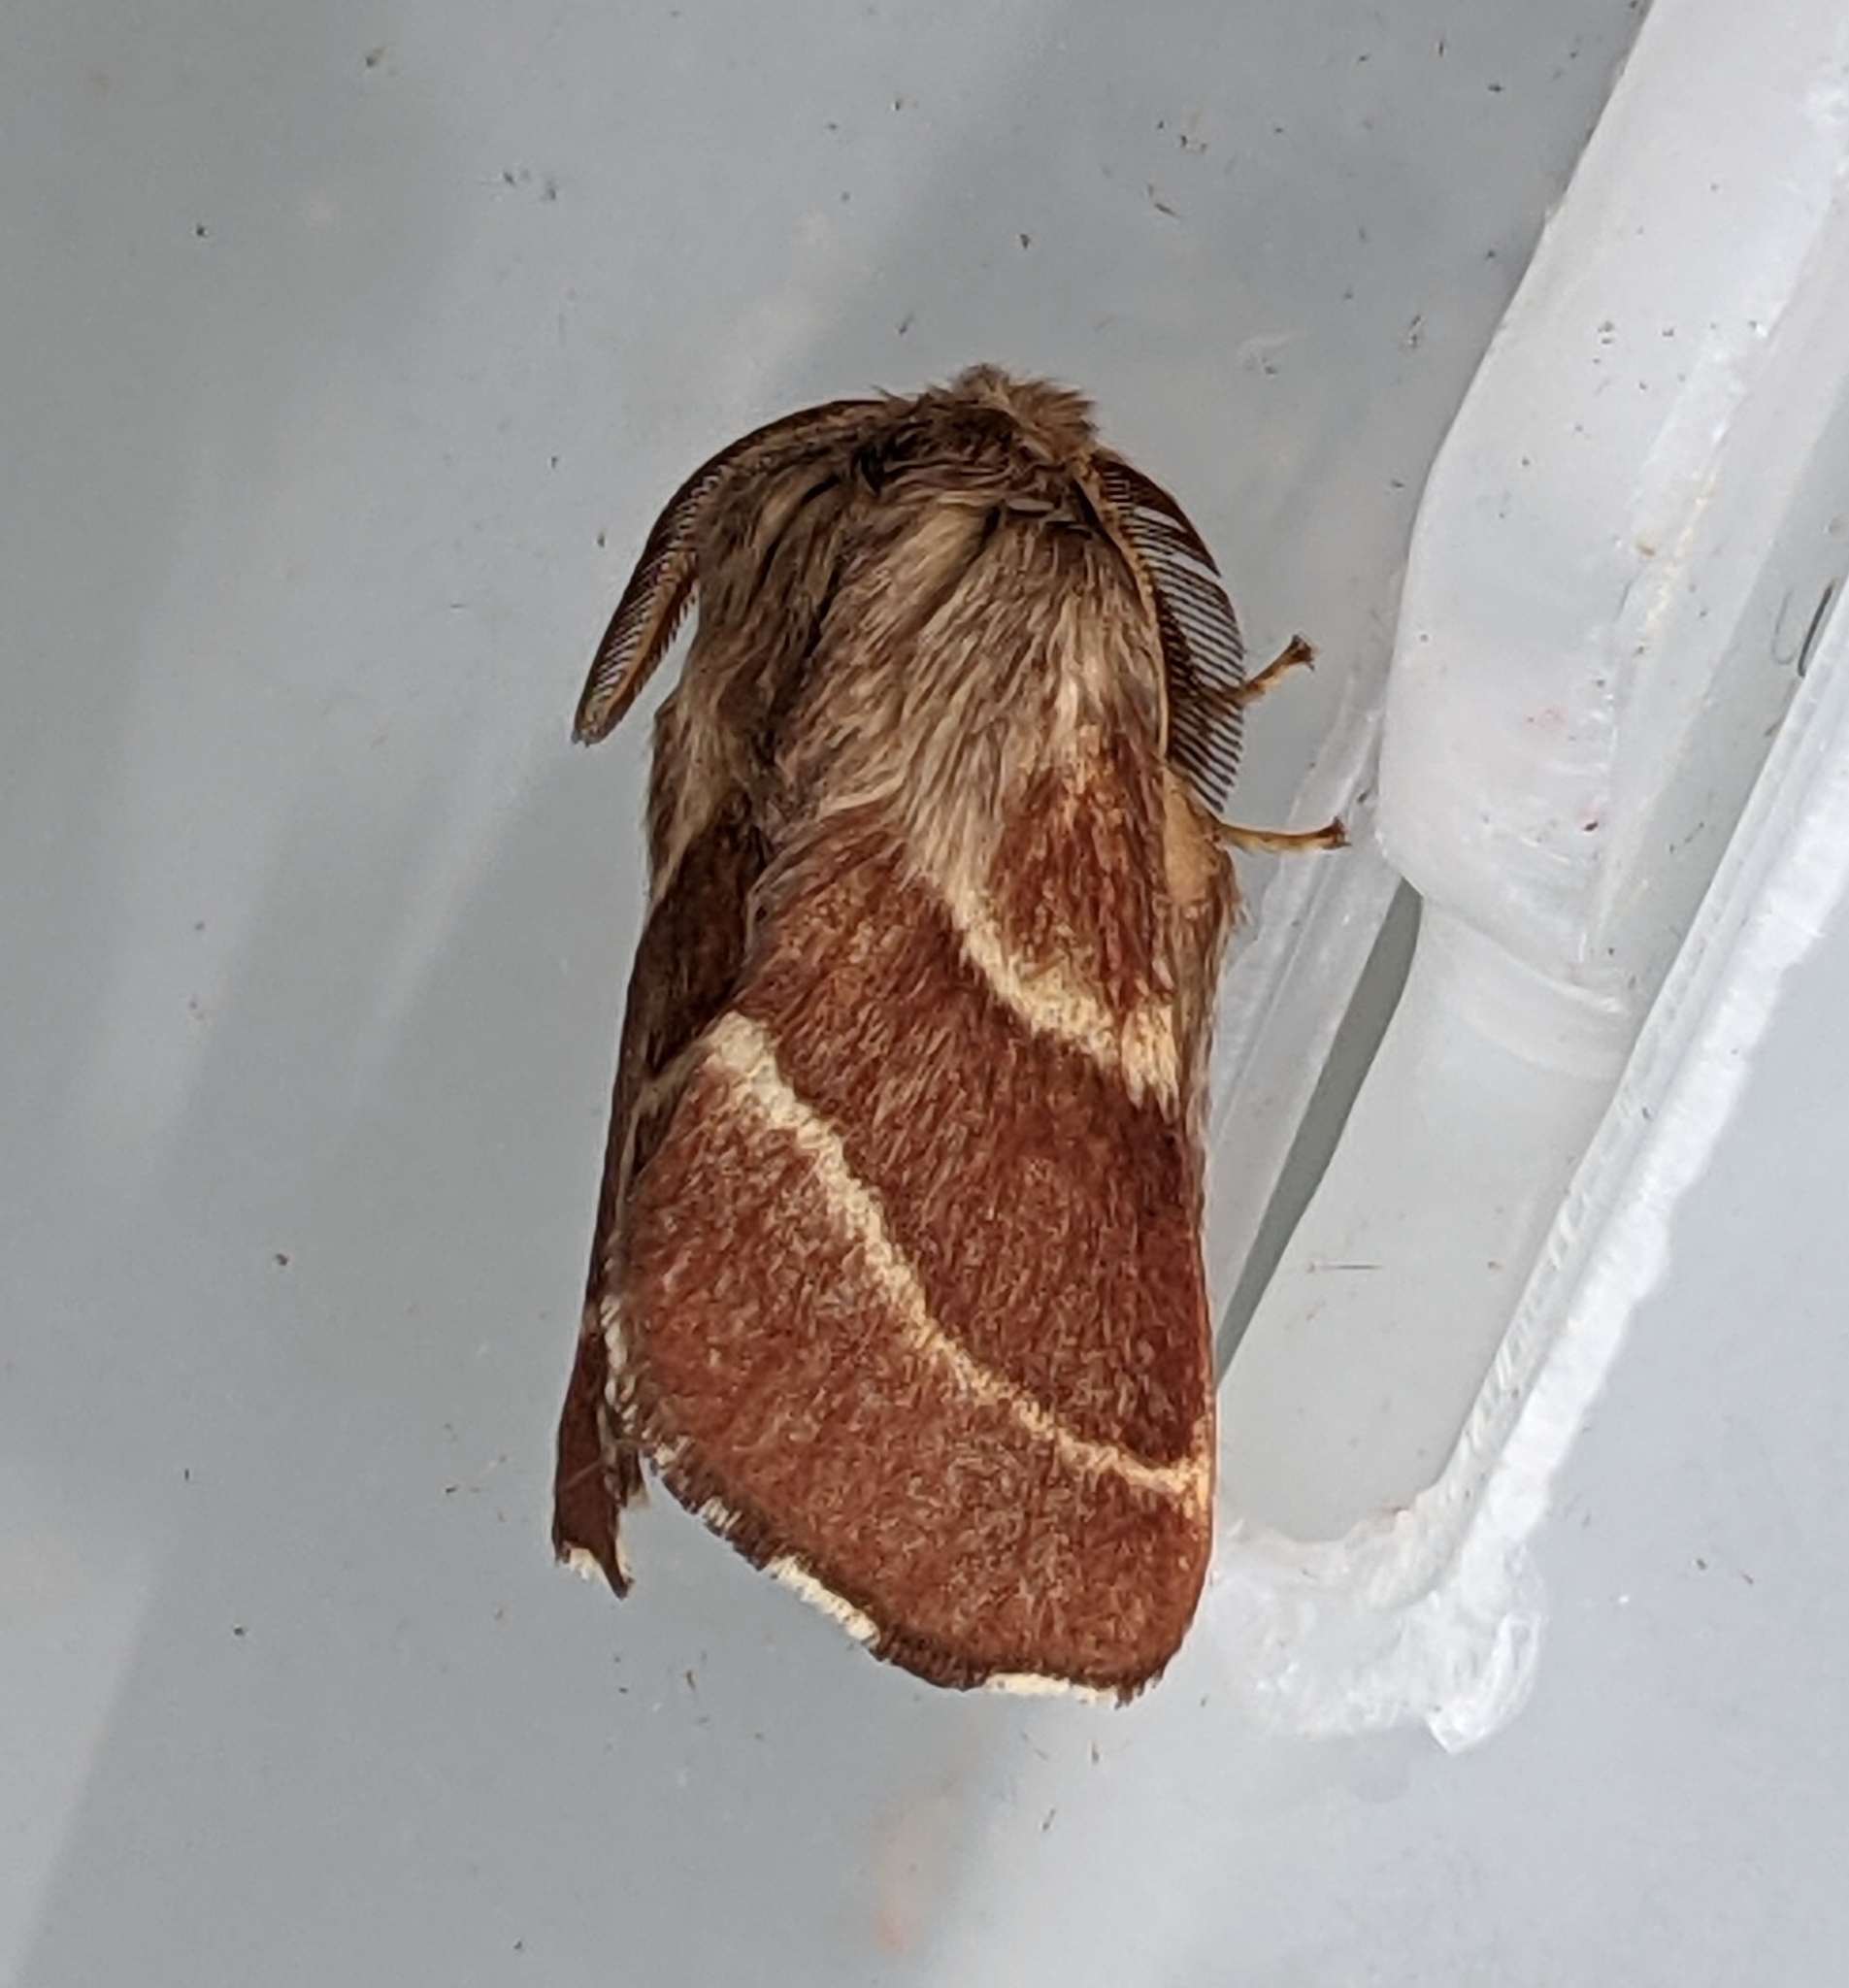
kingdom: Animalia
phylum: Arthropoda
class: Insecta
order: Lepidoptera
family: Lasiocampidae
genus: Malacosoma
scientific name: Malacosoma californica
